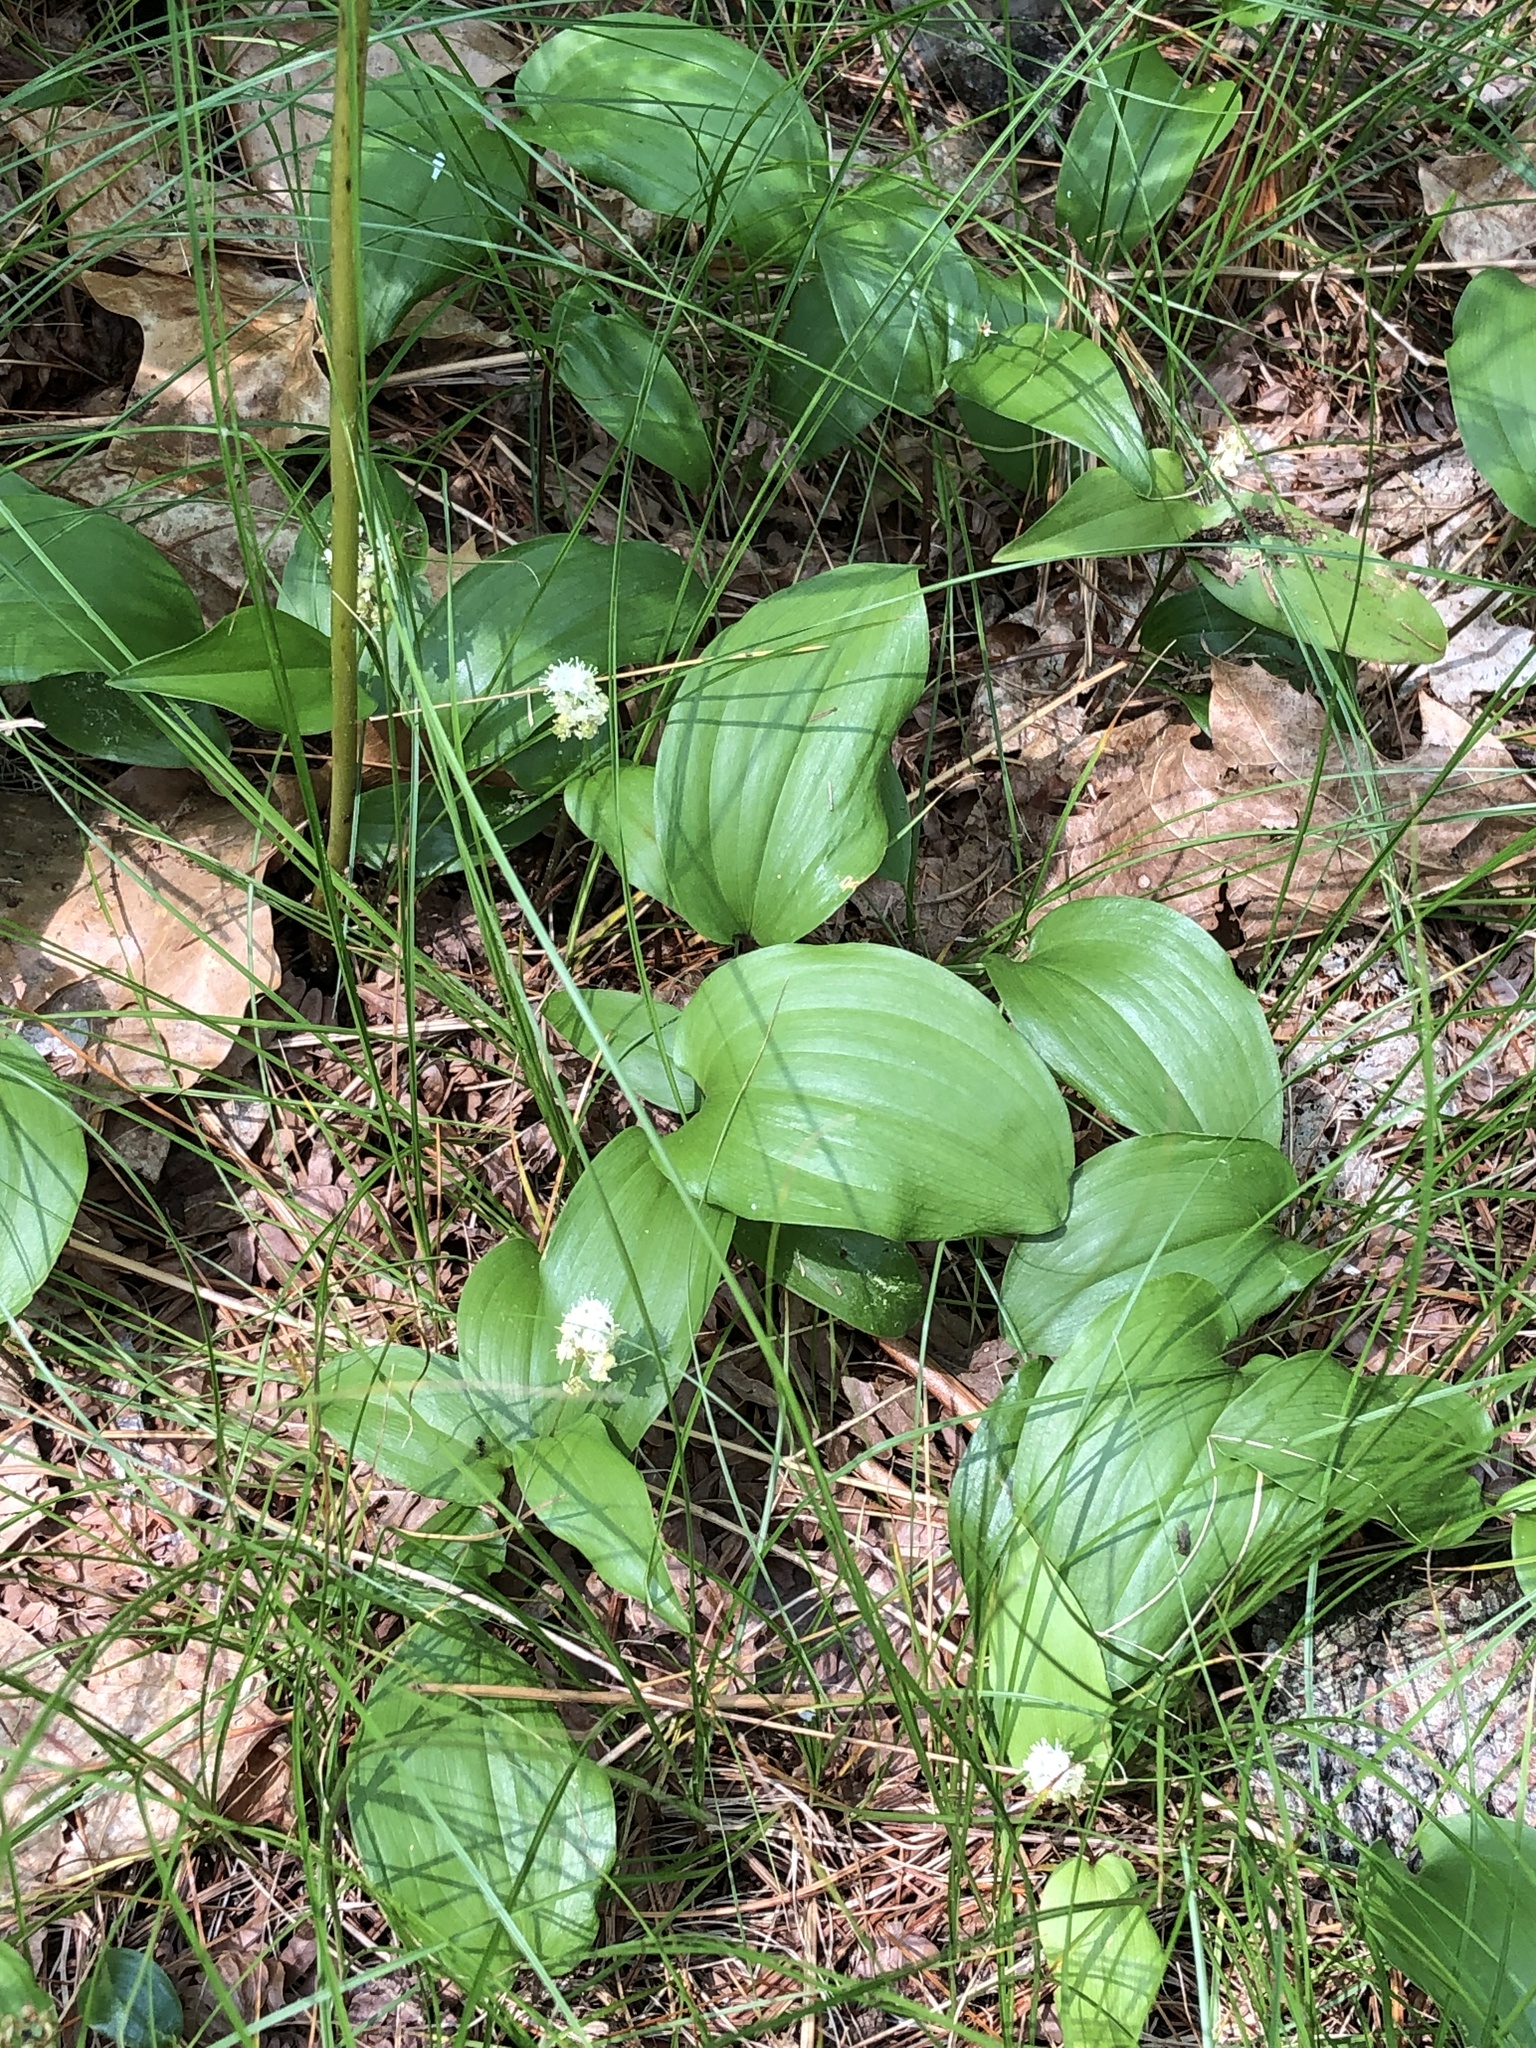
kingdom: Plantae
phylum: Tracheophyta
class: Liliopsida
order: Asparagales
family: Asparagaceae
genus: Maianthemum
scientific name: Maianthemum canadense
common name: False lily-of-the-valley
